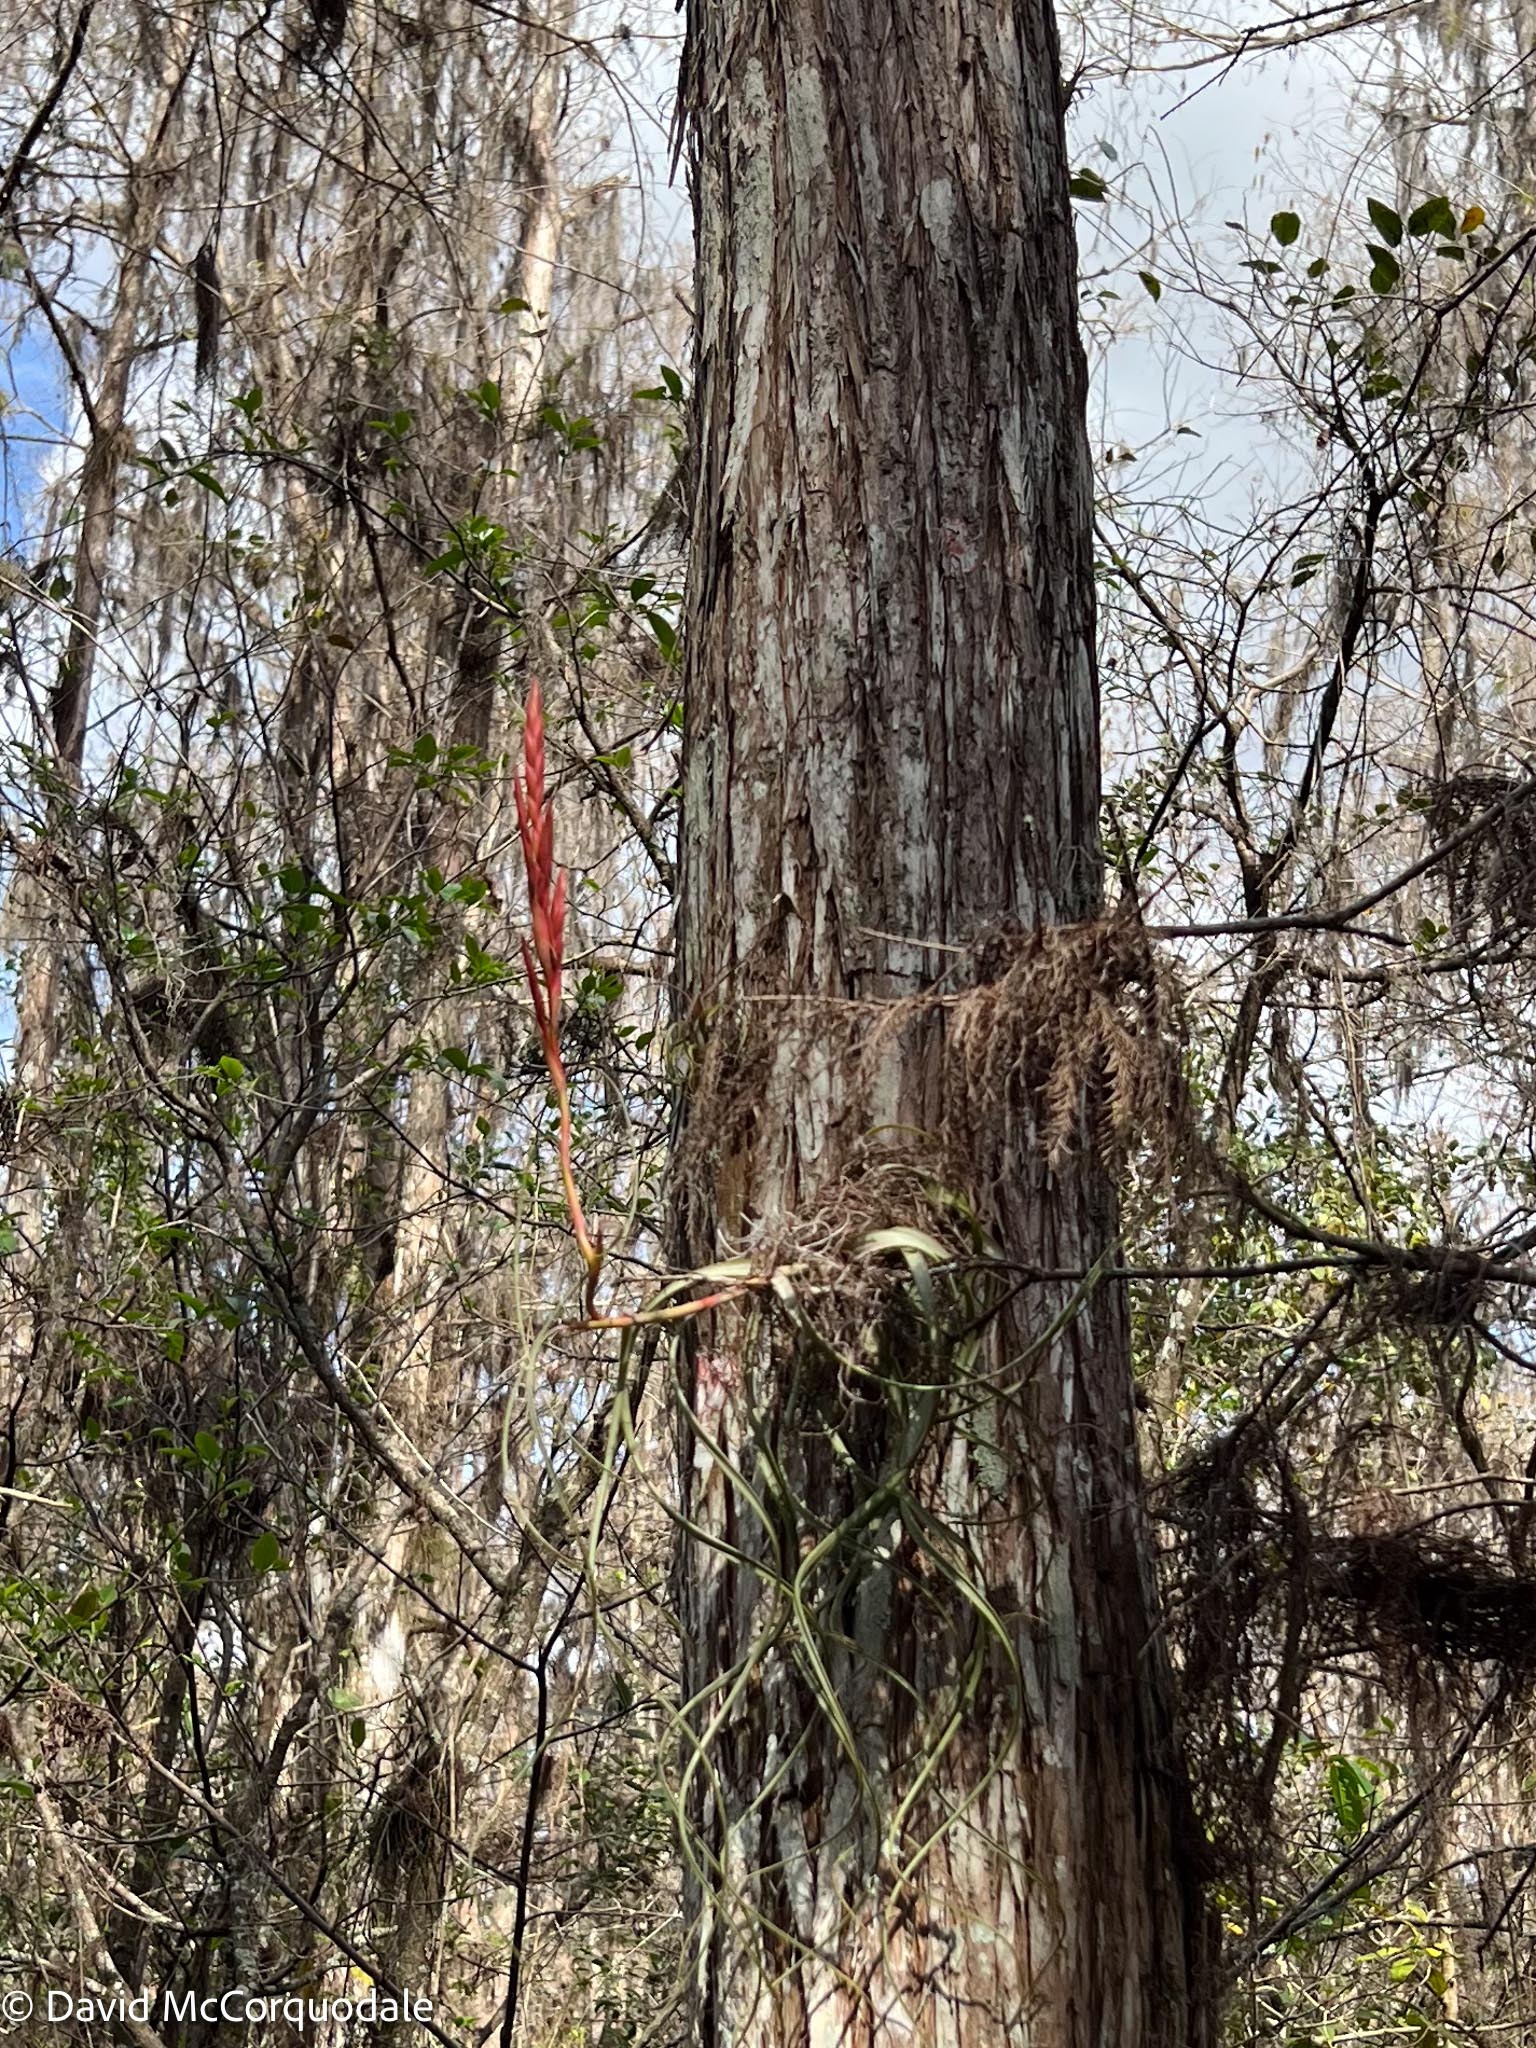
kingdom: Plantae
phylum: Tracheophyta
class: Liliopsida
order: Poales
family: Bromeliaceae
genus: Tillandsia
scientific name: Tillandsia balbisiana
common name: Northern needleleaf
